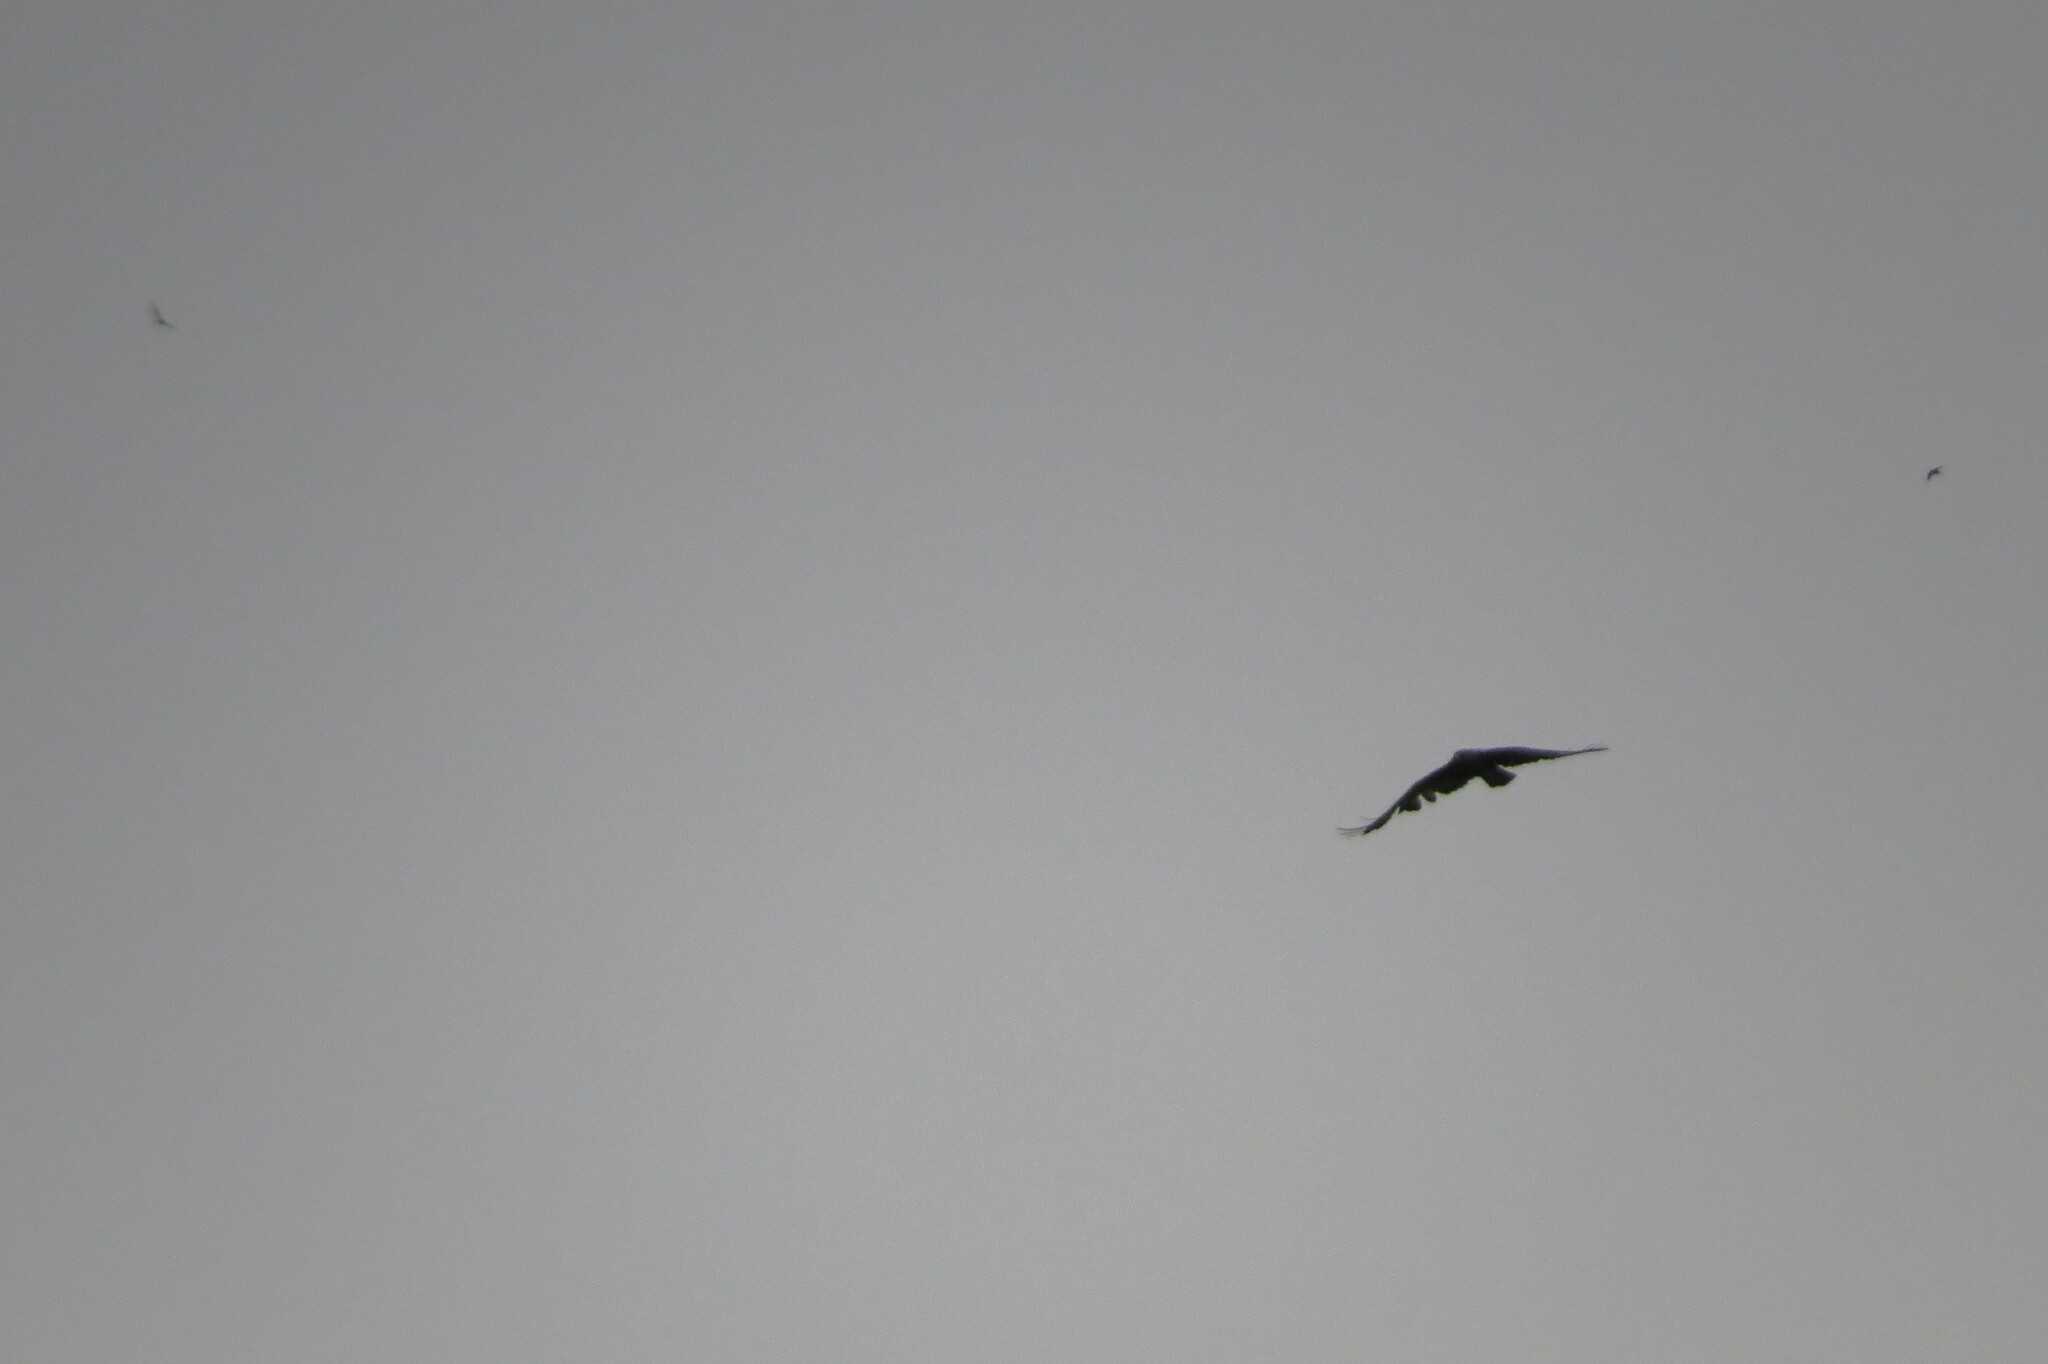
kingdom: Animalia
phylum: Chordata
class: Aves
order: Accipitriformes
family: Accipitridae
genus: Buteo
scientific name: Buteo buteo
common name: Common buzzard
